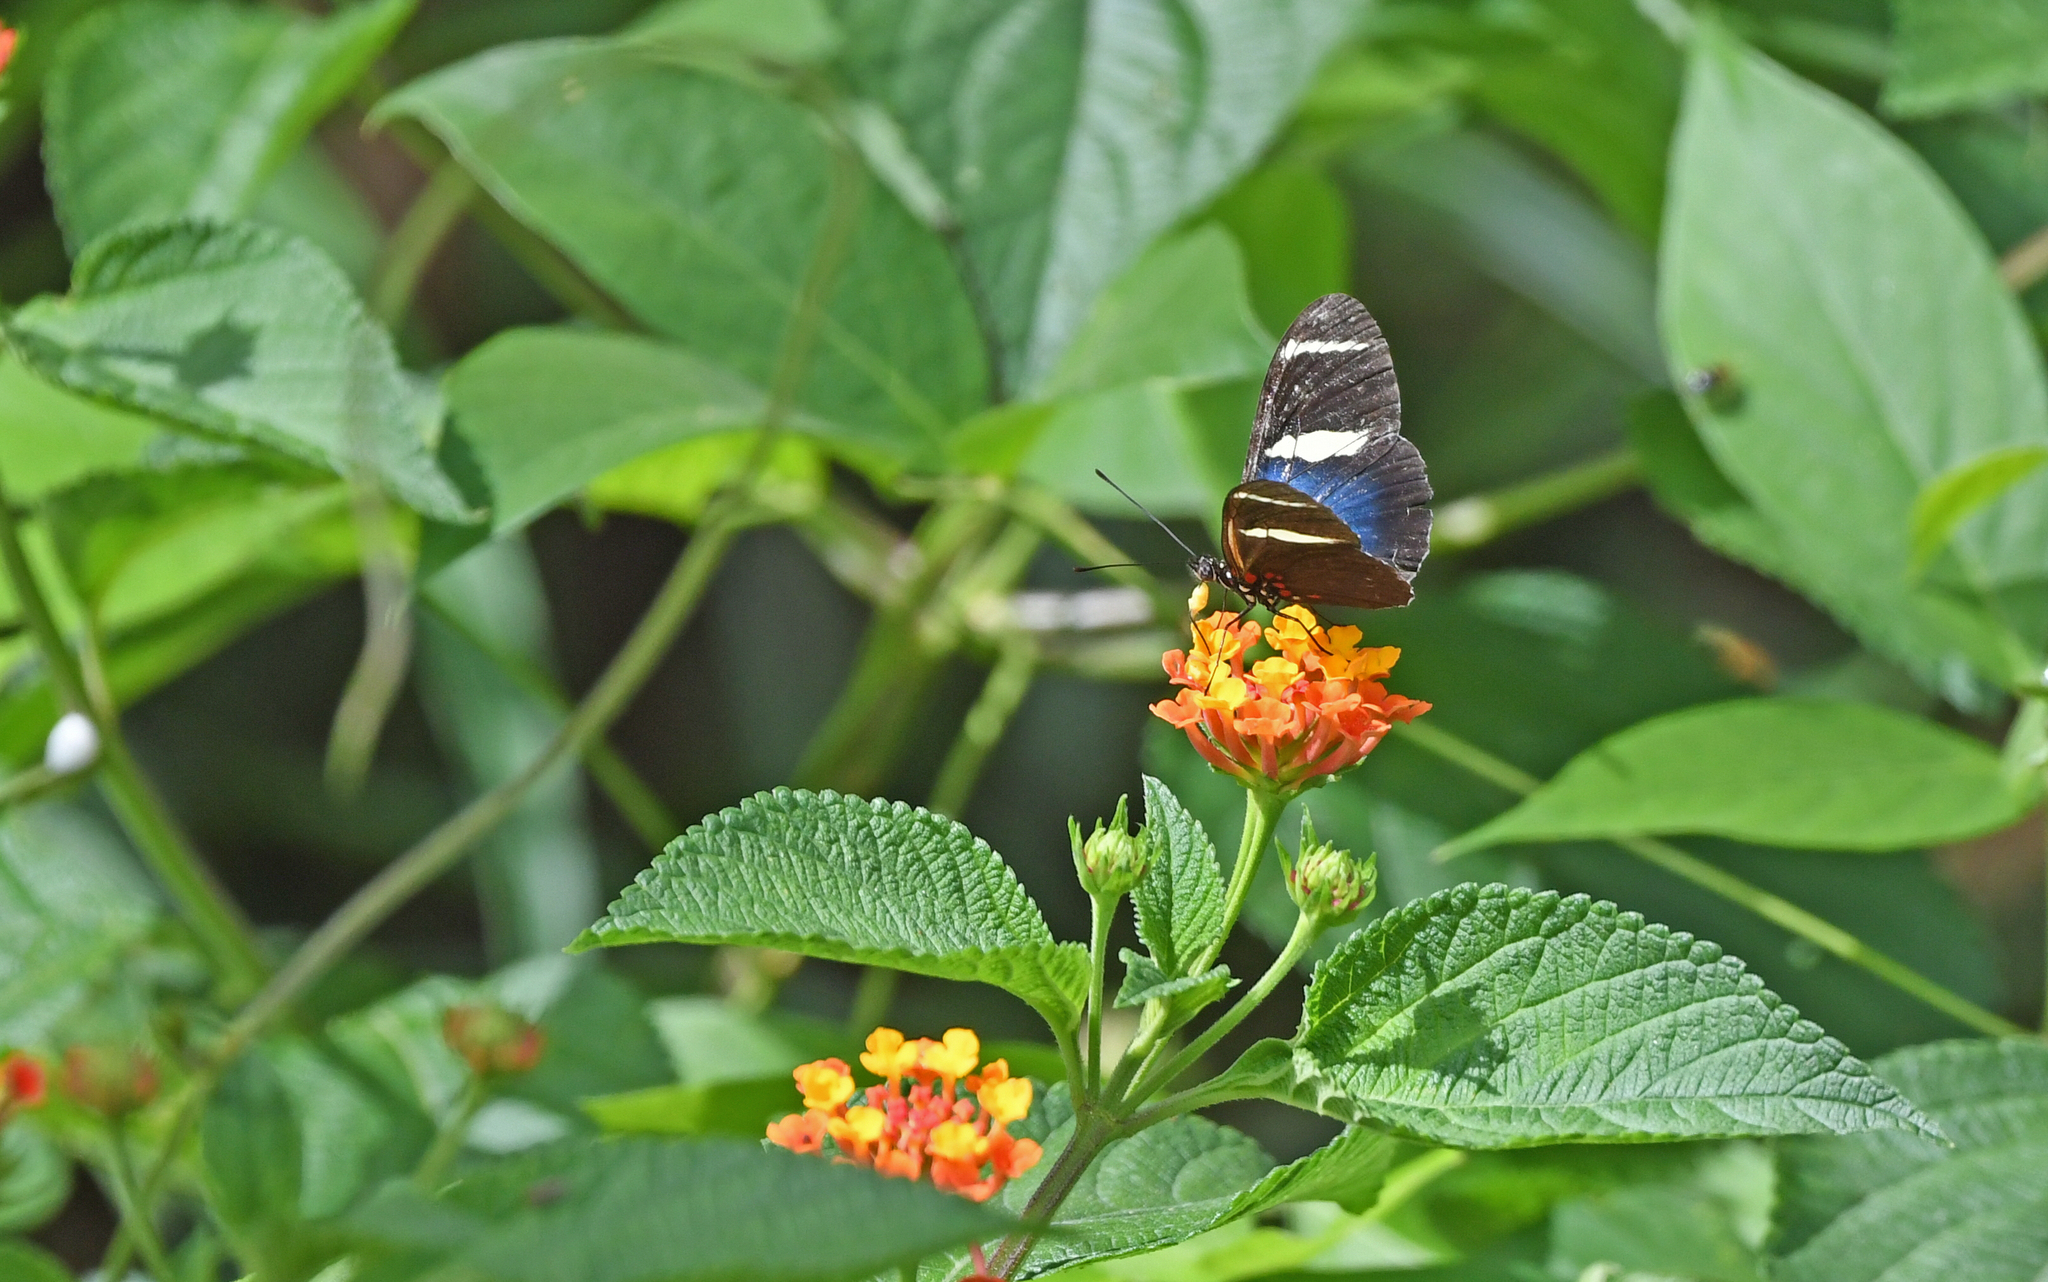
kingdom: Animalia
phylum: Arthropoda
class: Insecta
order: Lepidoptera
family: Nymphalidae
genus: Heliconius
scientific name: Heliconius sara
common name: Sara longwing
